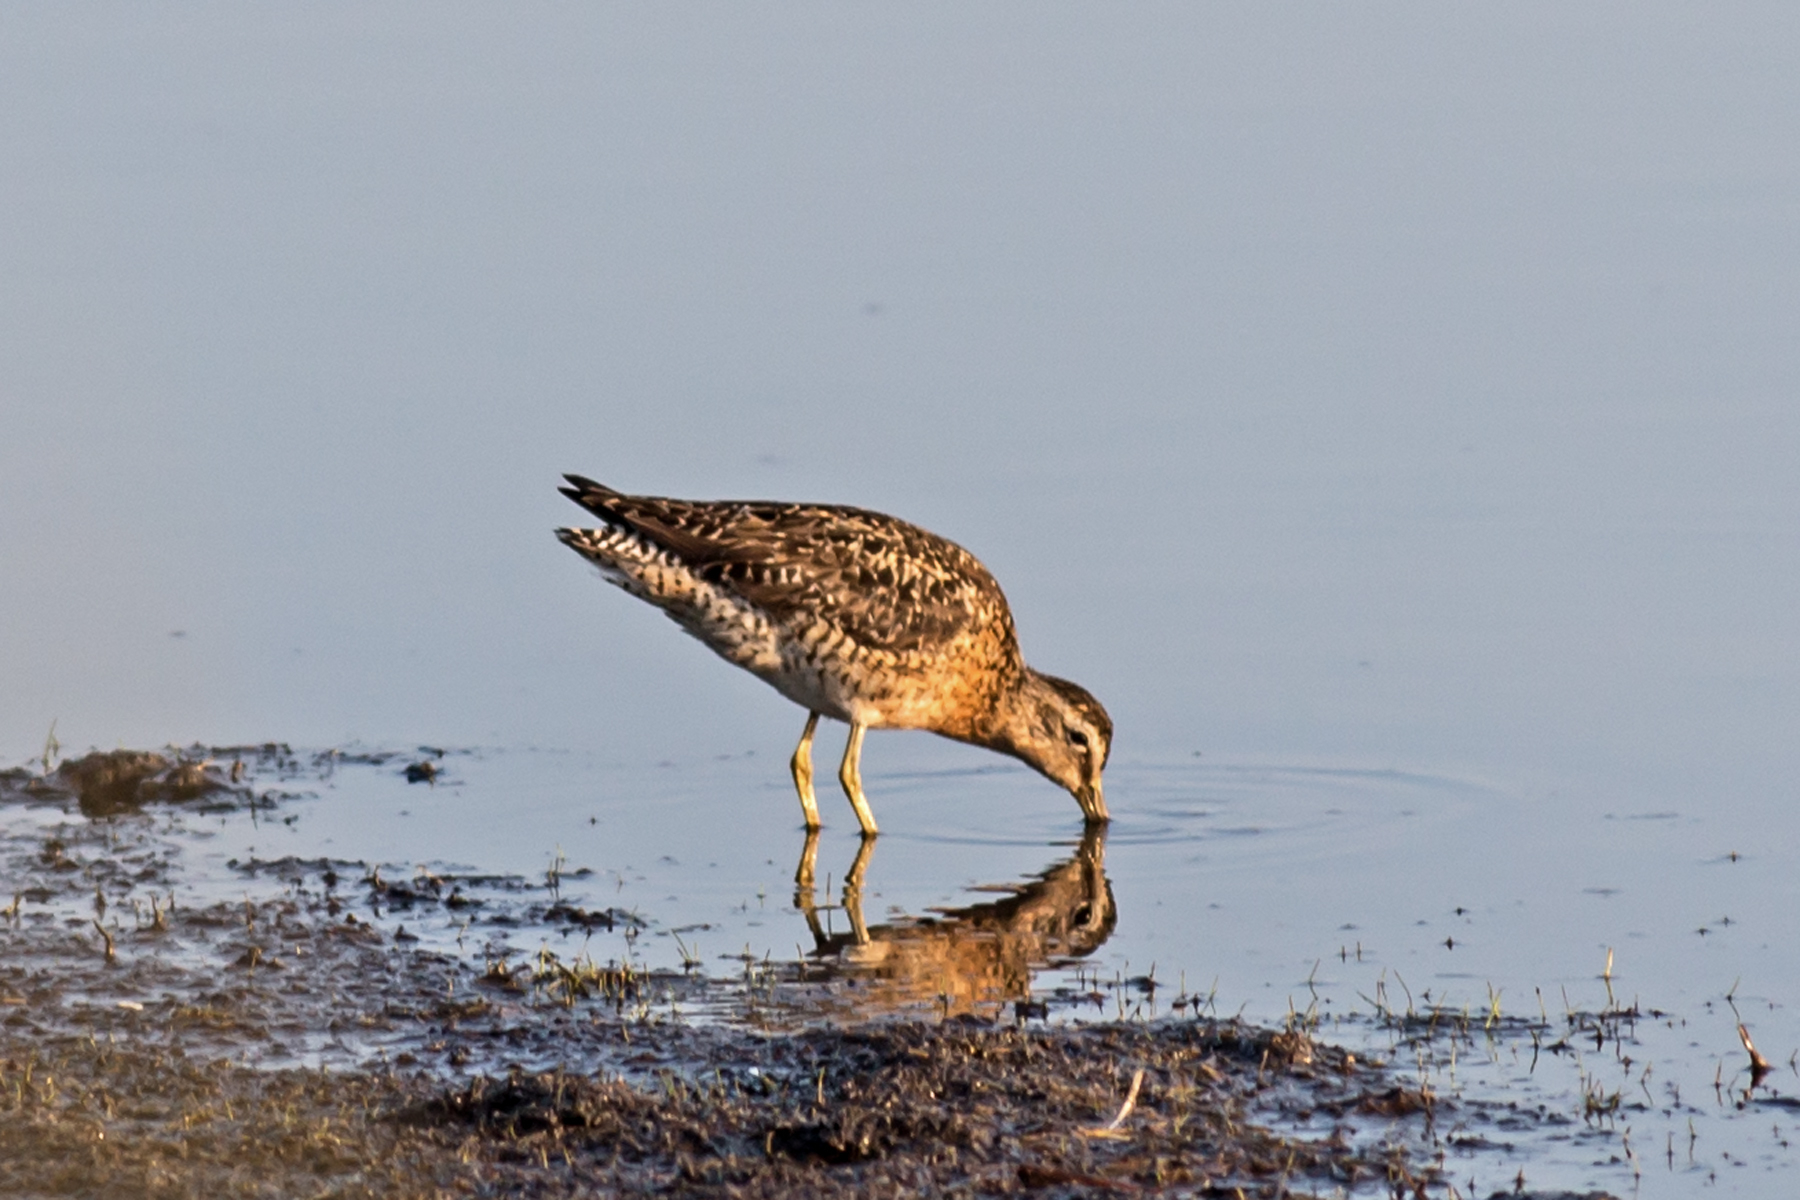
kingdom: Animalia
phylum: Chordata
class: Aves
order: Charadriiformes
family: Scolopacidae
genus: Limnodromus
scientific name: Limnodromus griseus
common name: Short-billed dowitcher
